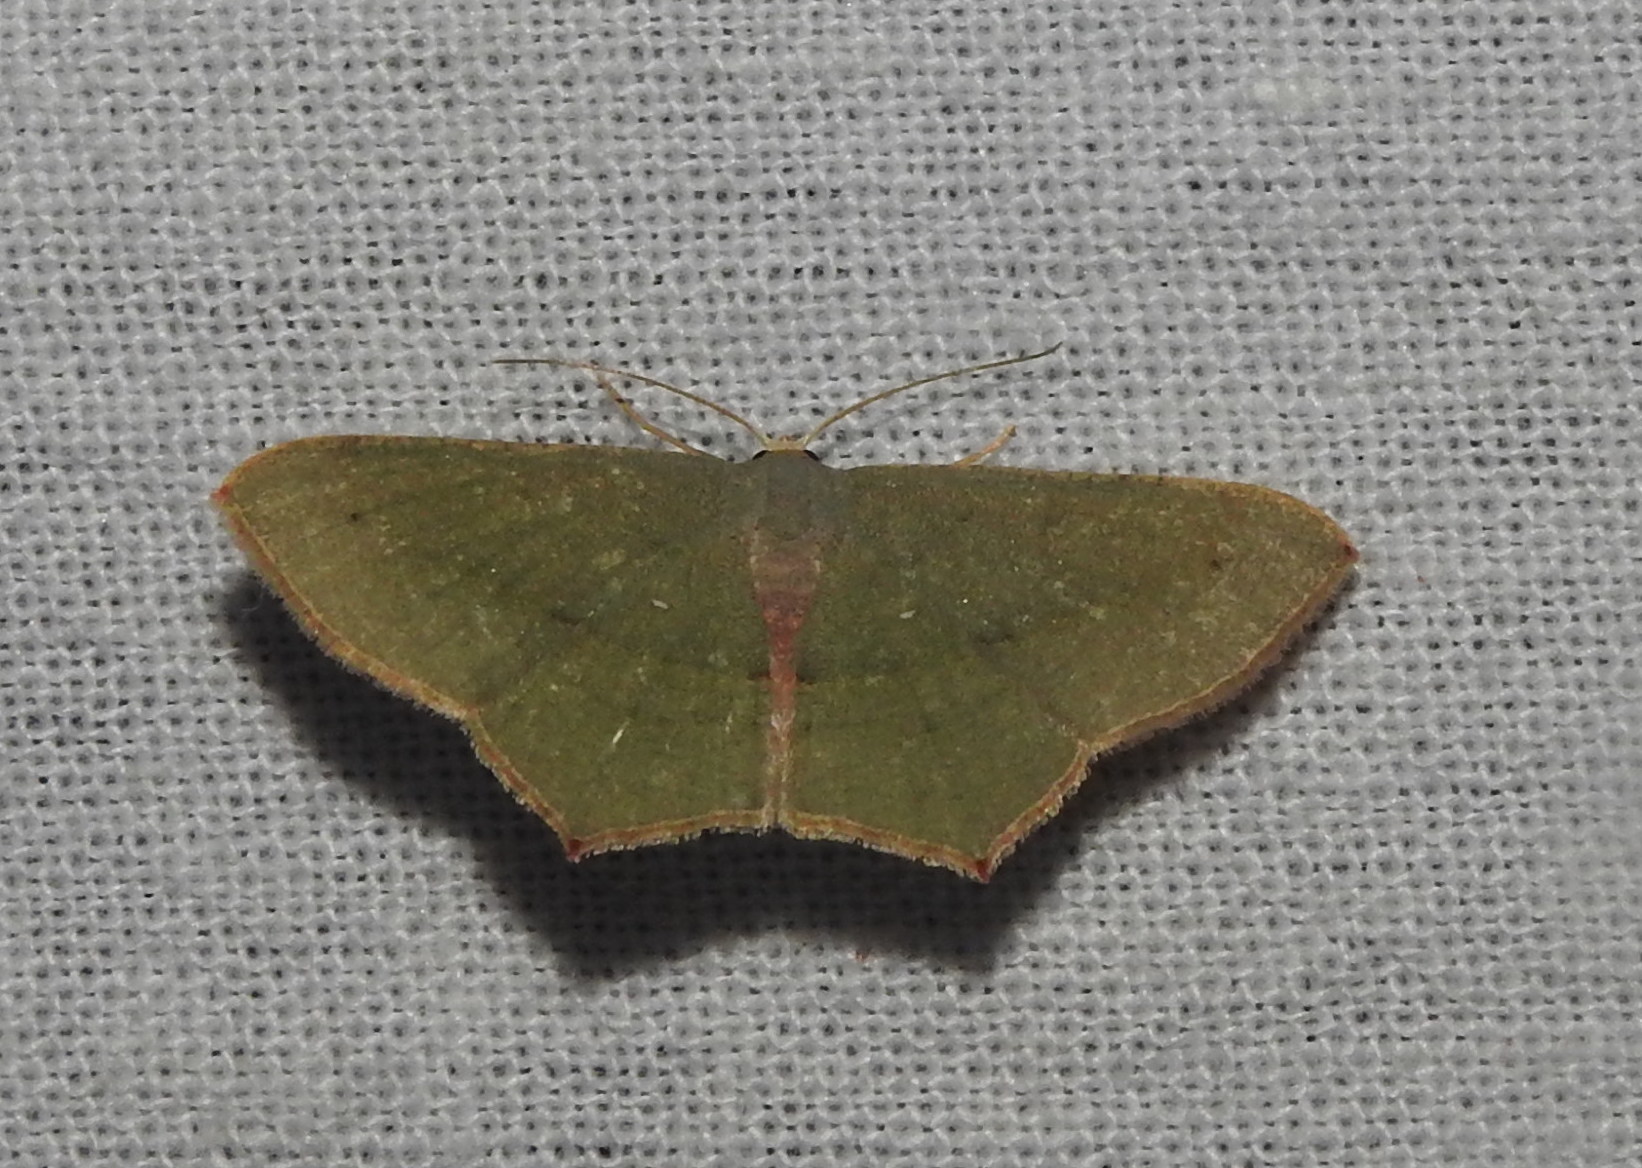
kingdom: Animalia
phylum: Arthropoda
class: Insecta
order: Lepidoptera
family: Geometridae
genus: Traminda
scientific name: Traminda mundissima
